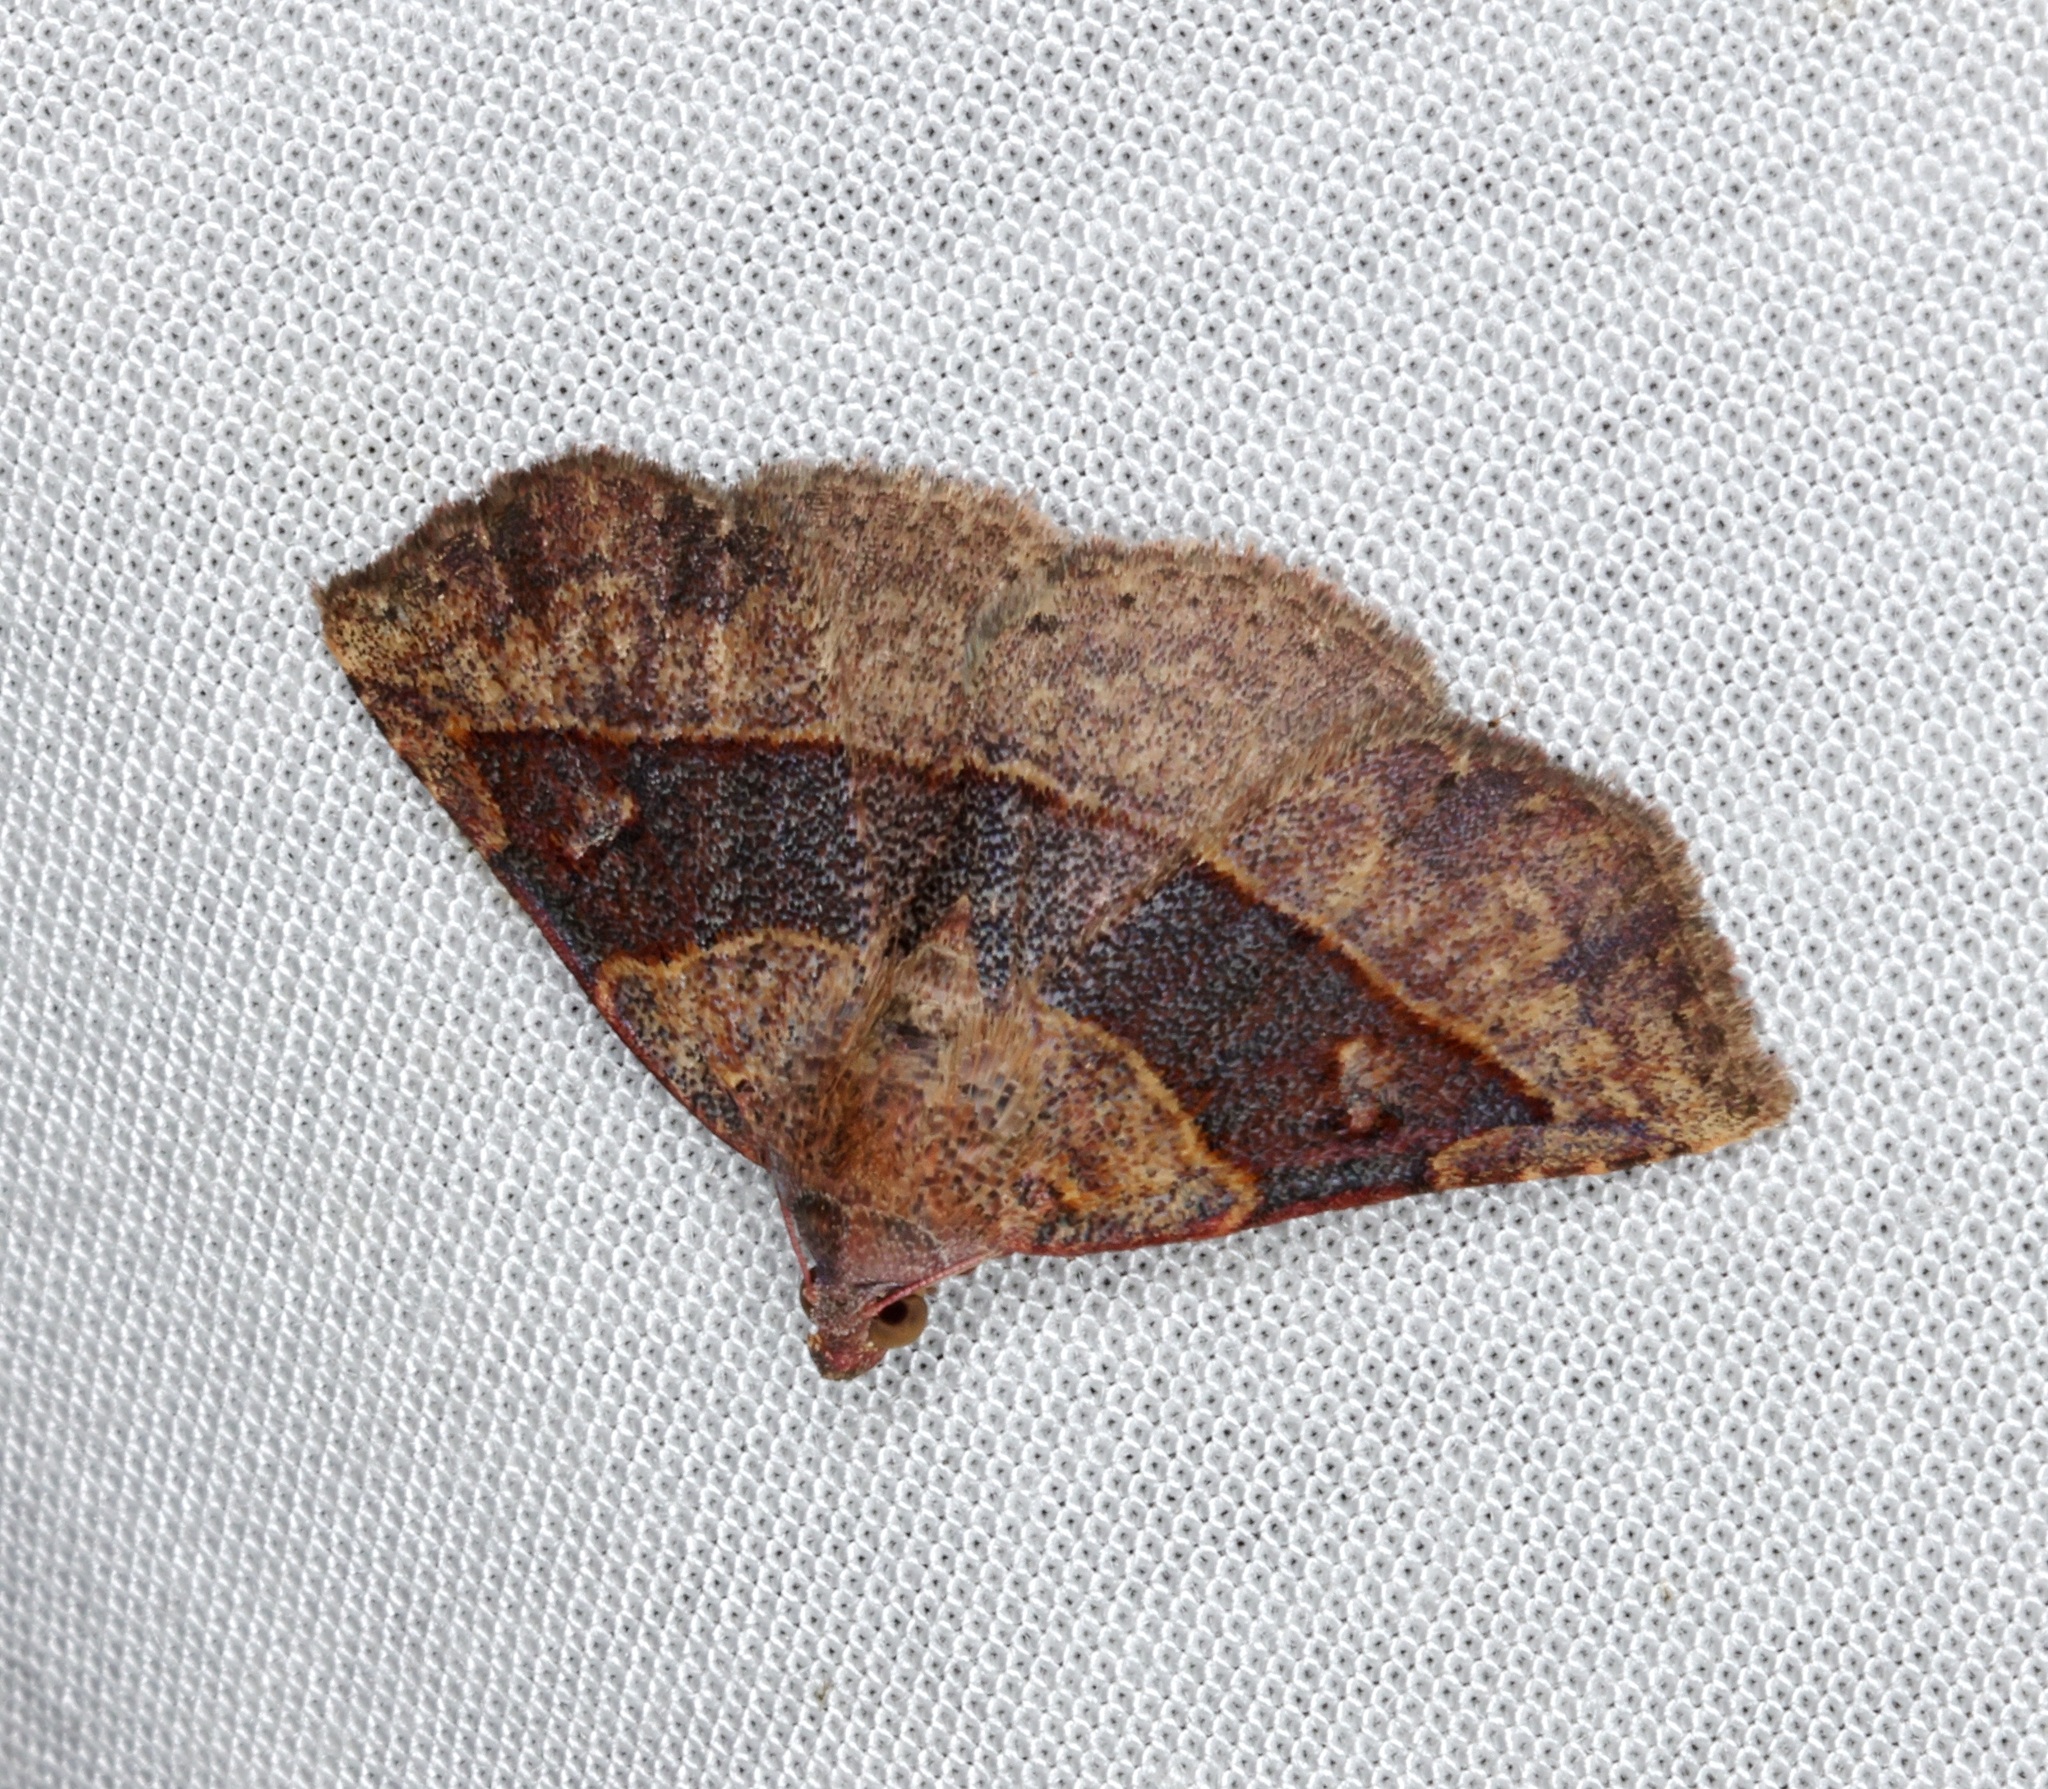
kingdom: Animalia
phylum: Arthropoda
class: Insecta
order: Lepidoptera
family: Erebidae
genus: Condate
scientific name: Condate hypenoides
